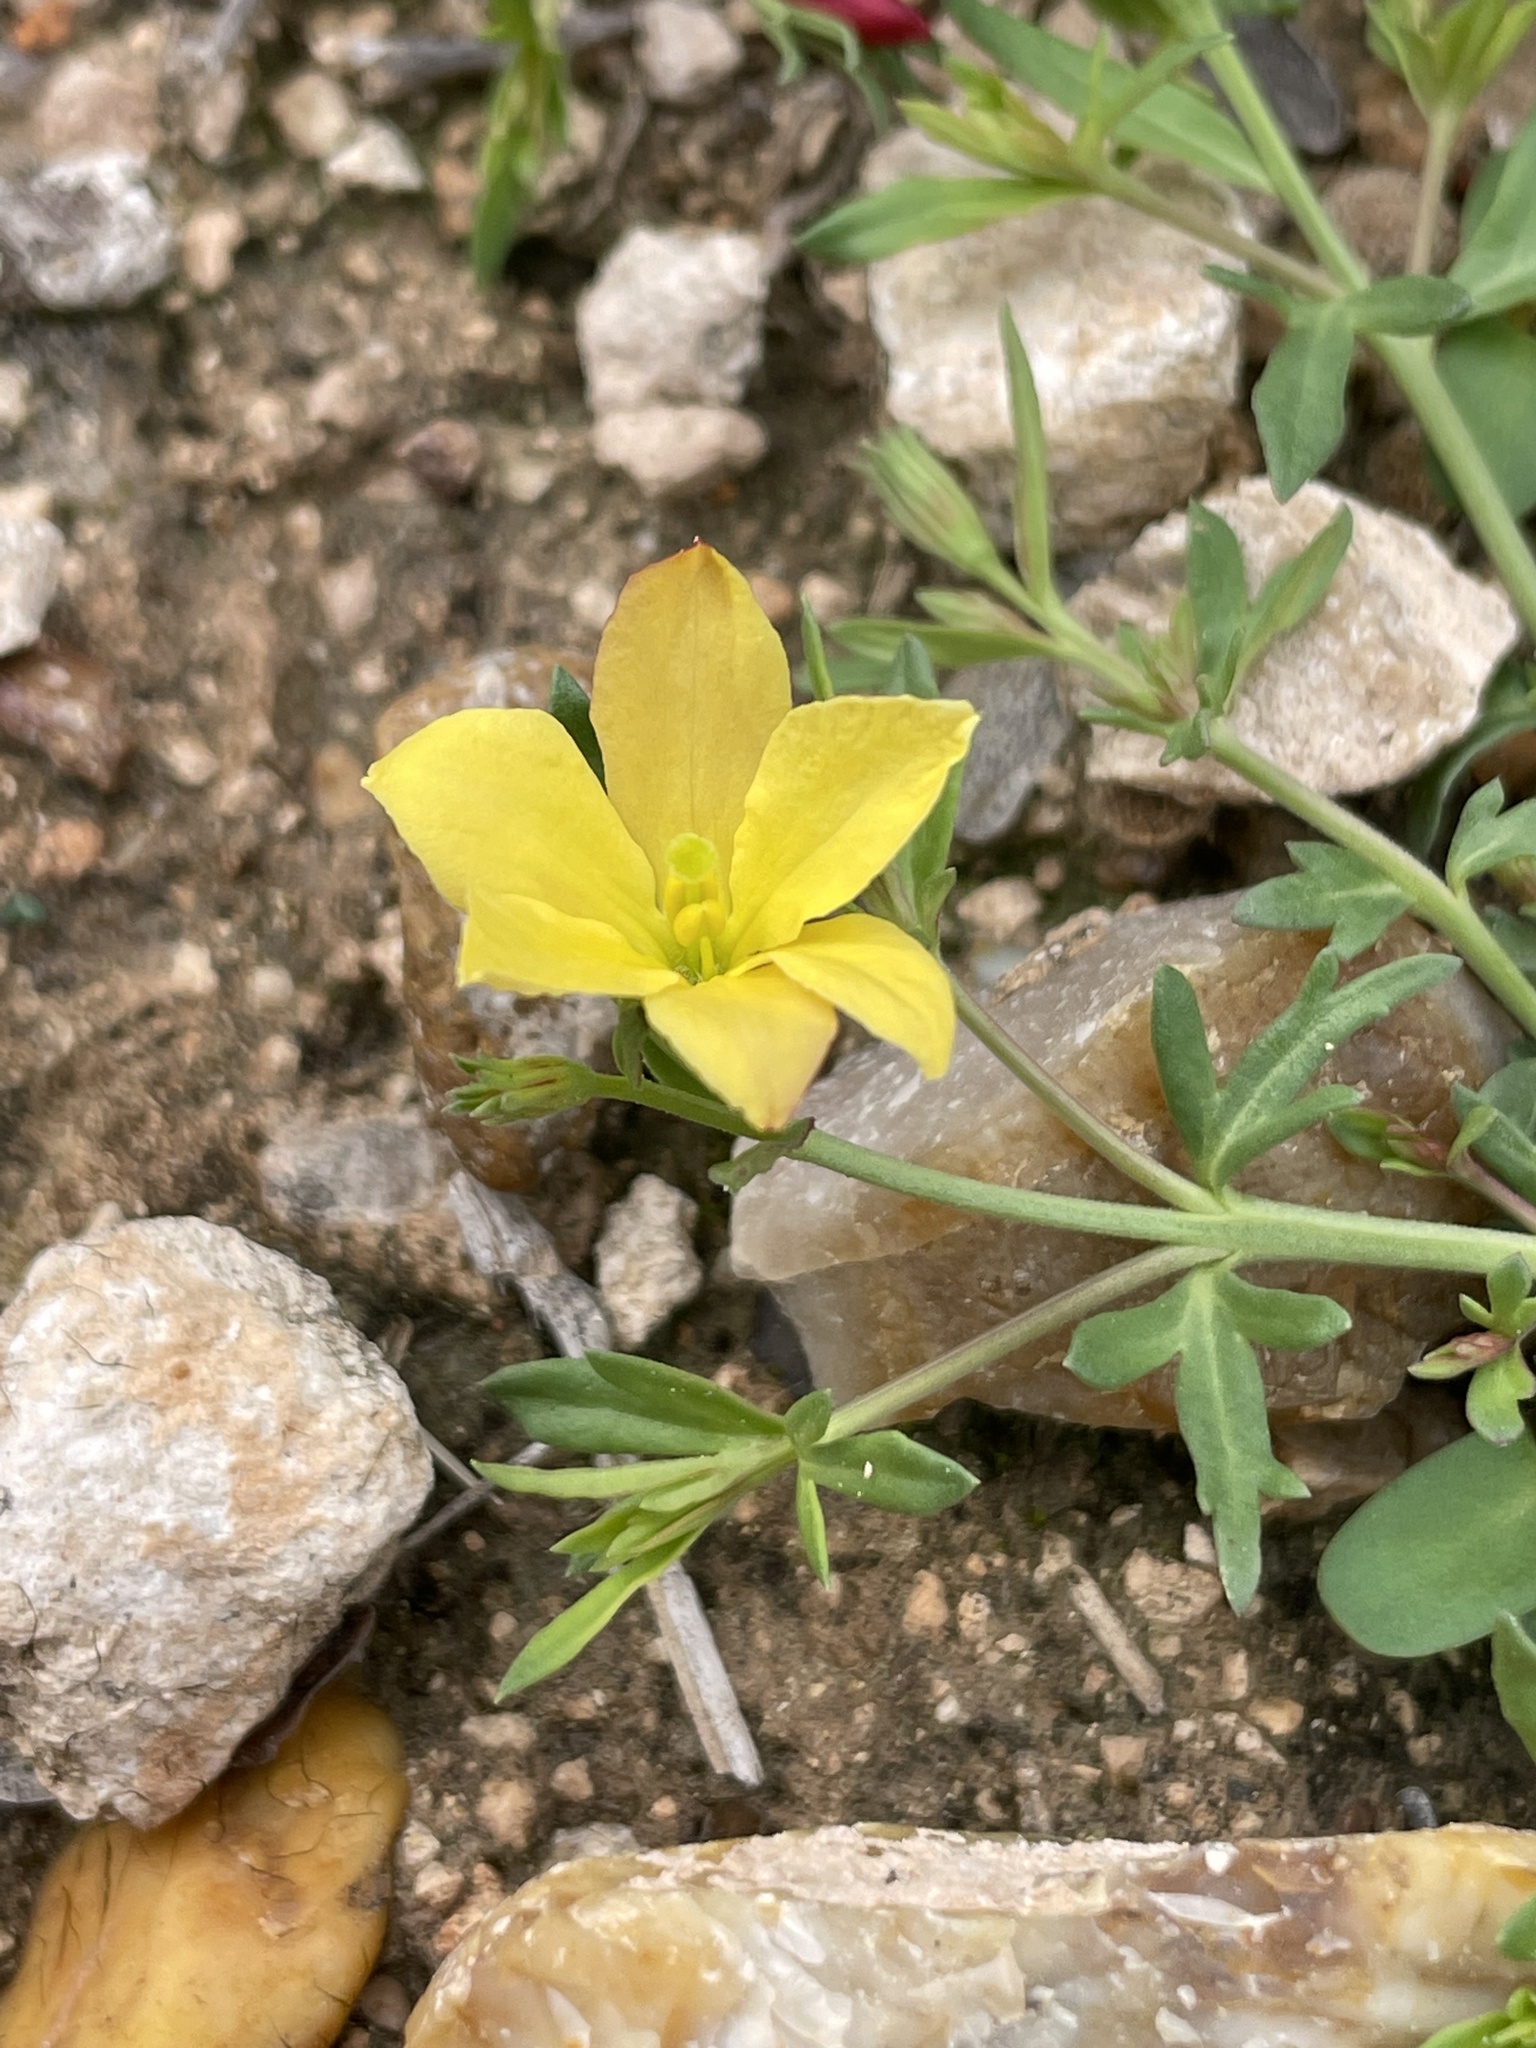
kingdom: Plantae
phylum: Tracheophyta
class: Magnoliopsida
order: Lamiales
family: Oleaceae
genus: Menodora
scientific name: Menodora heterophylla
